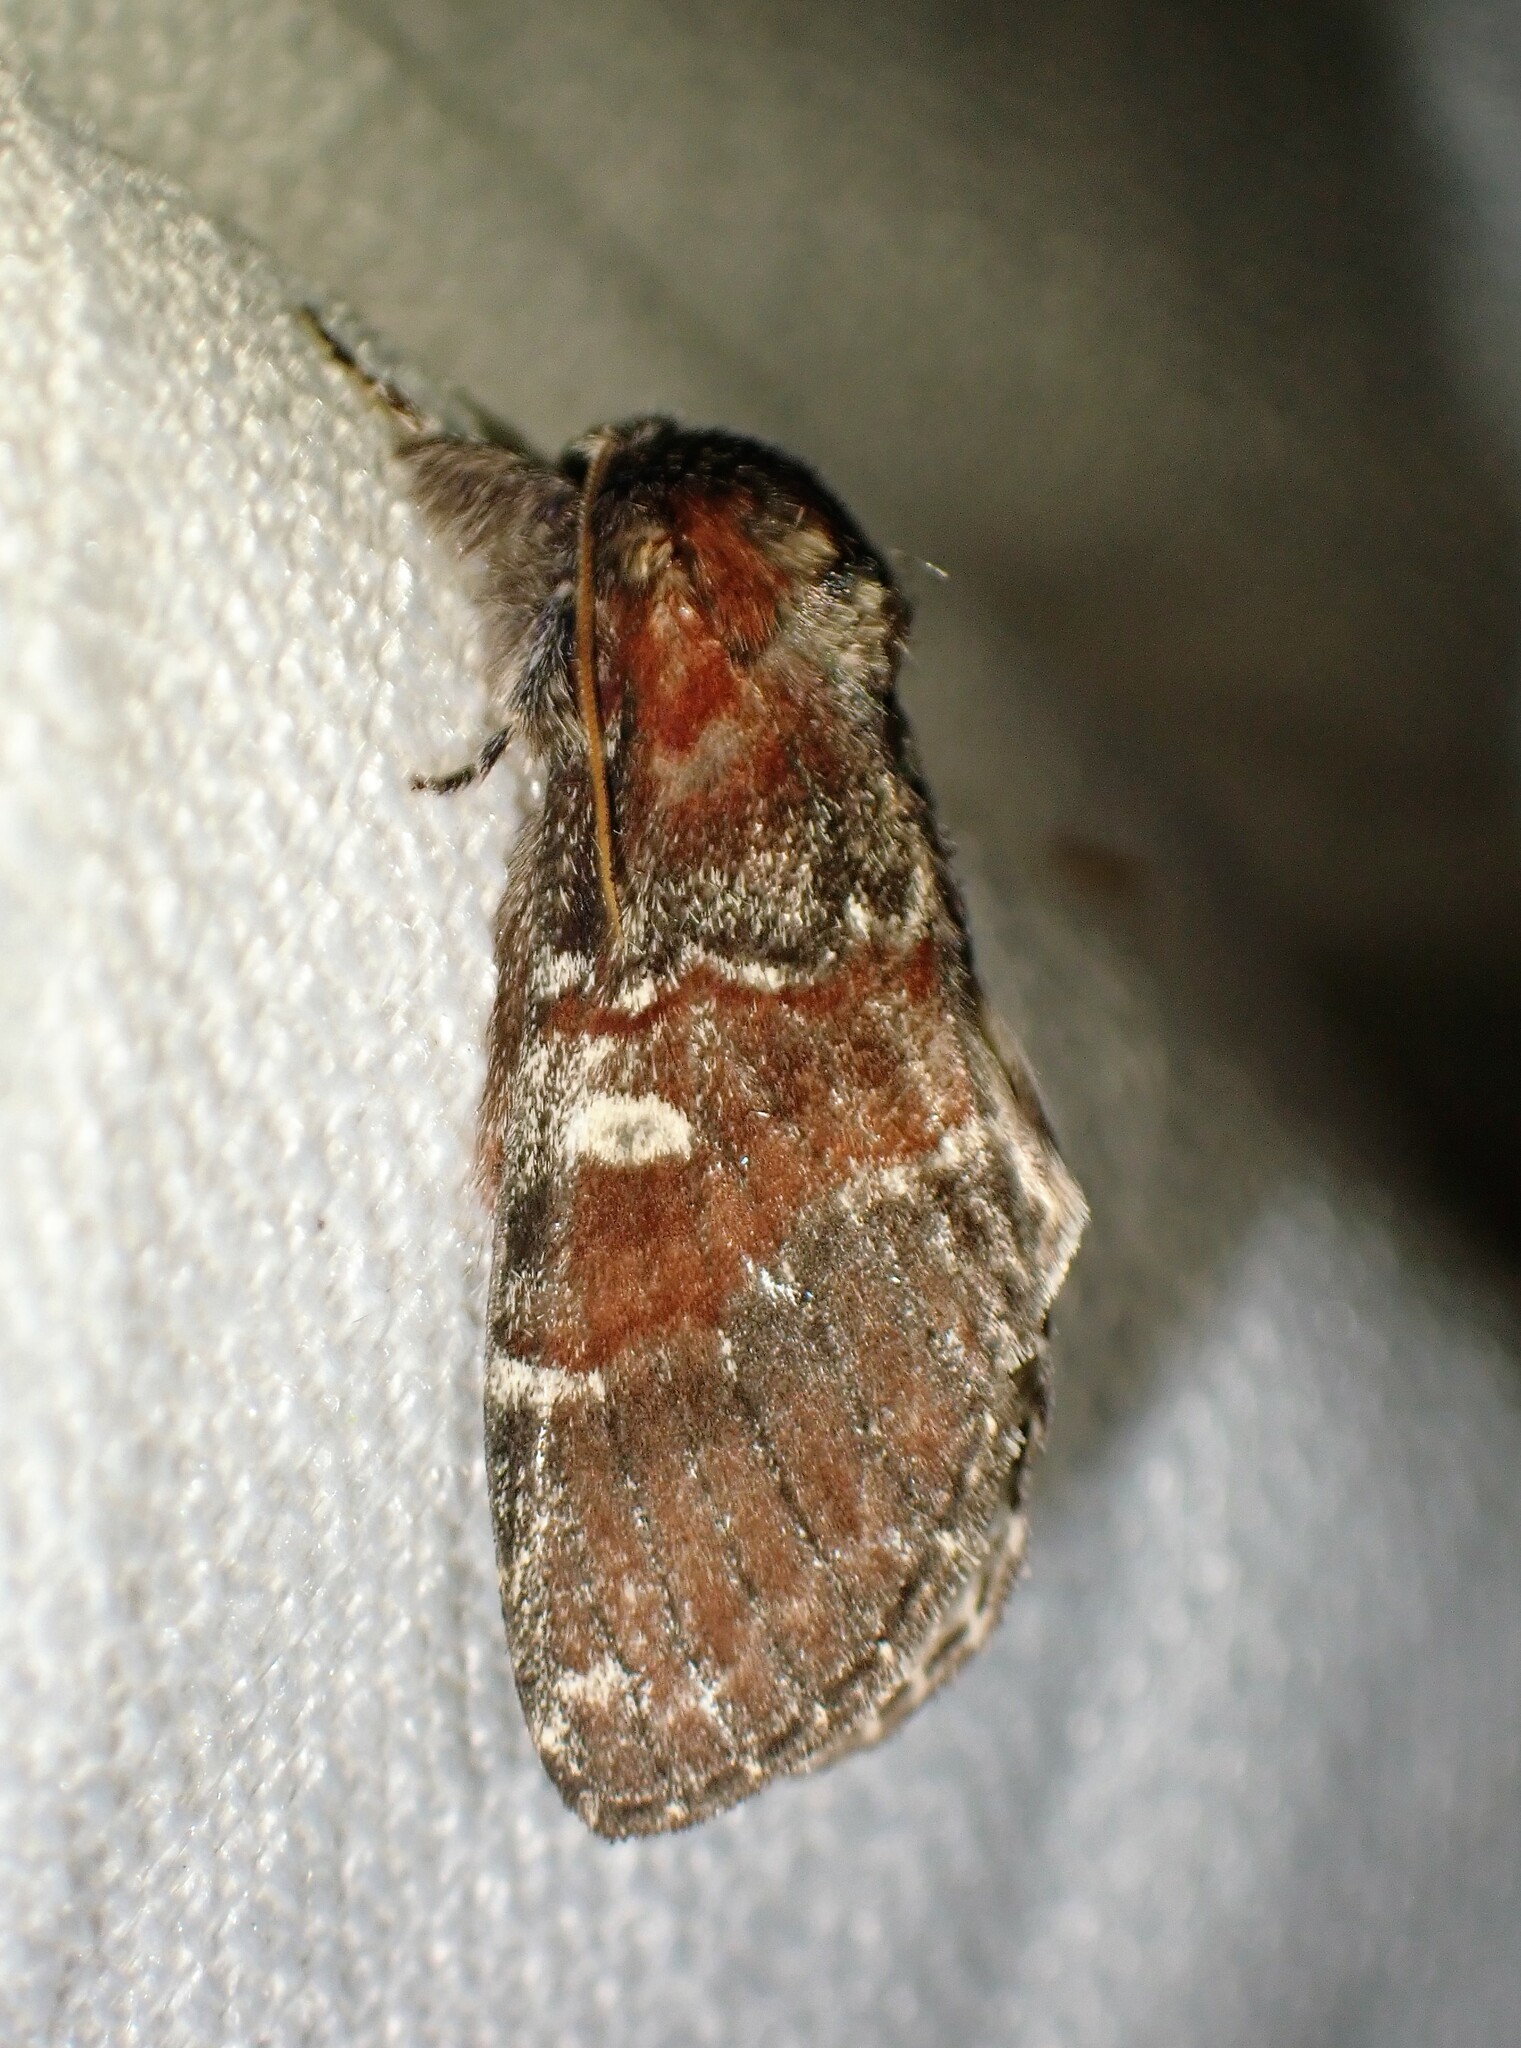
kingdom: Animalia
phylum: Arthropoda
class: Insecta
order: Lepidoptera
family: Notodontidae
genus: Peridea
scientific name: Peridea ferruginea
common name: Chocolate prominent
